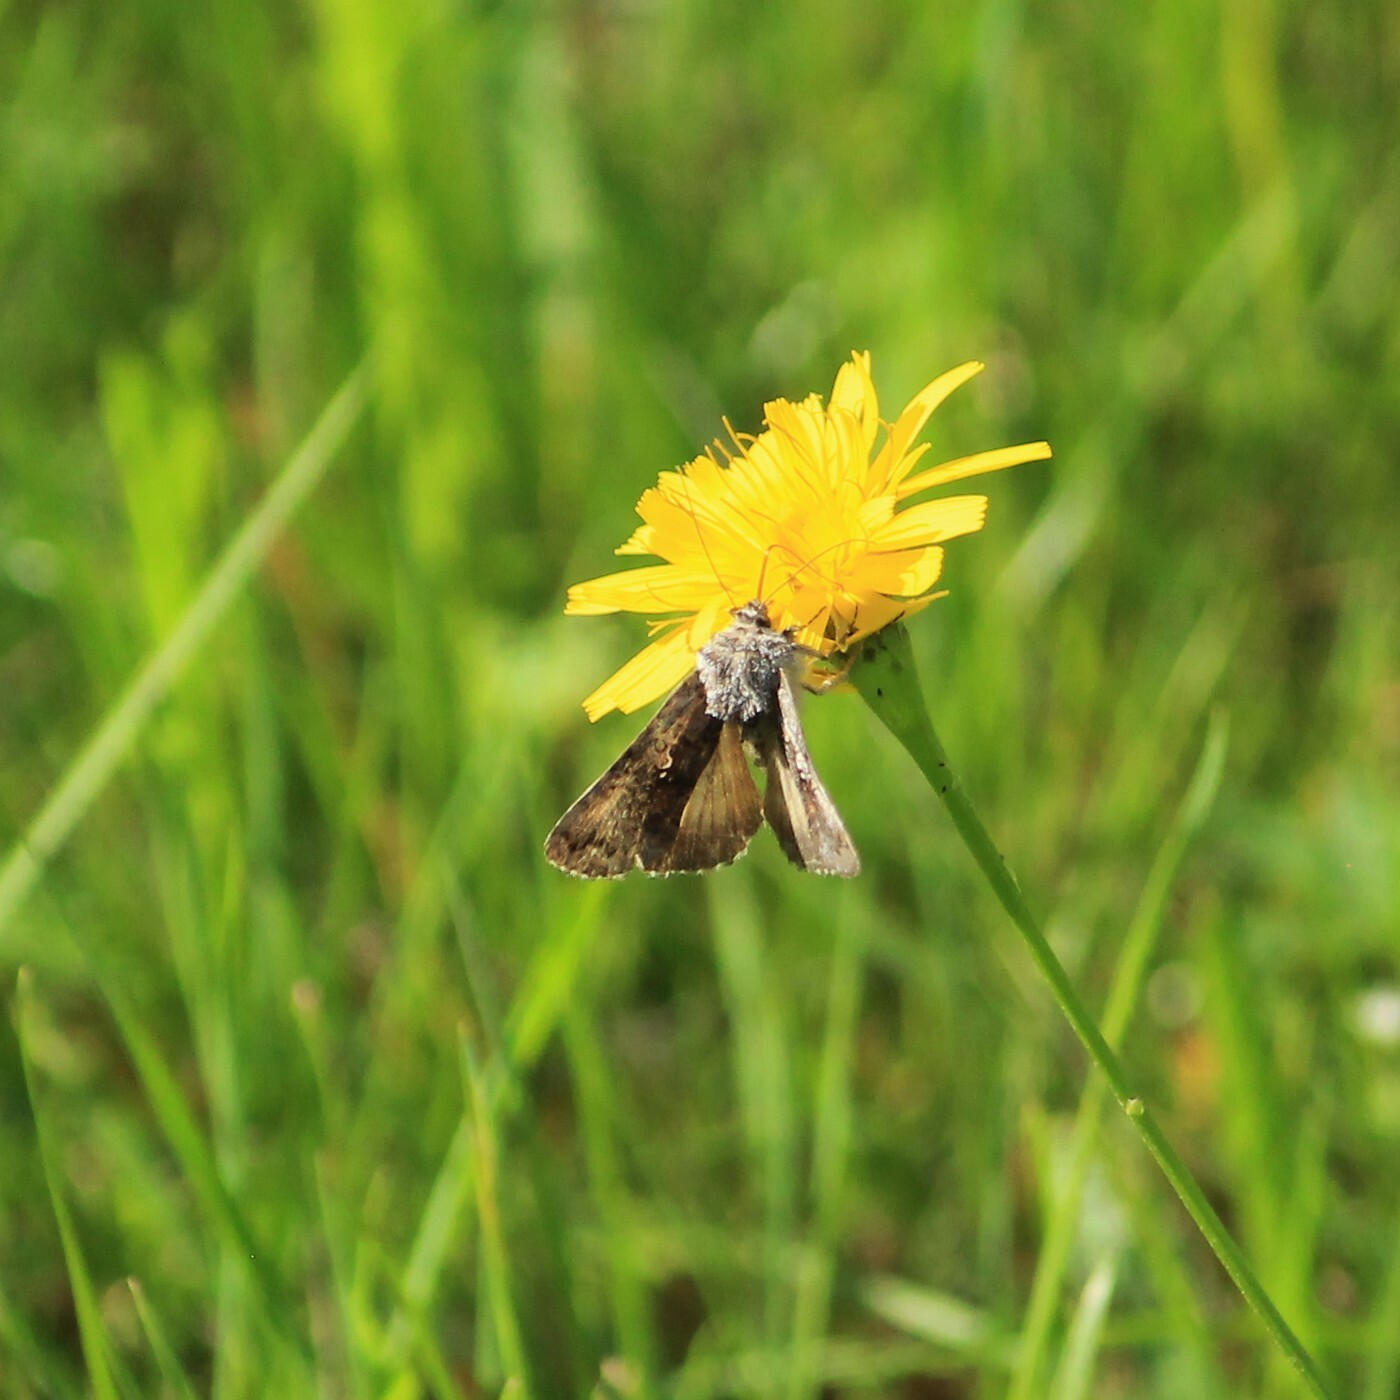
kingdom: Animalia
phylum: Arthropoda
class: Insecta
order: Lepidoptera
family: Noctuidae
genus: Syngrapha
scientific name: Syngrapha interrogationis
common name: Scarce silver y
